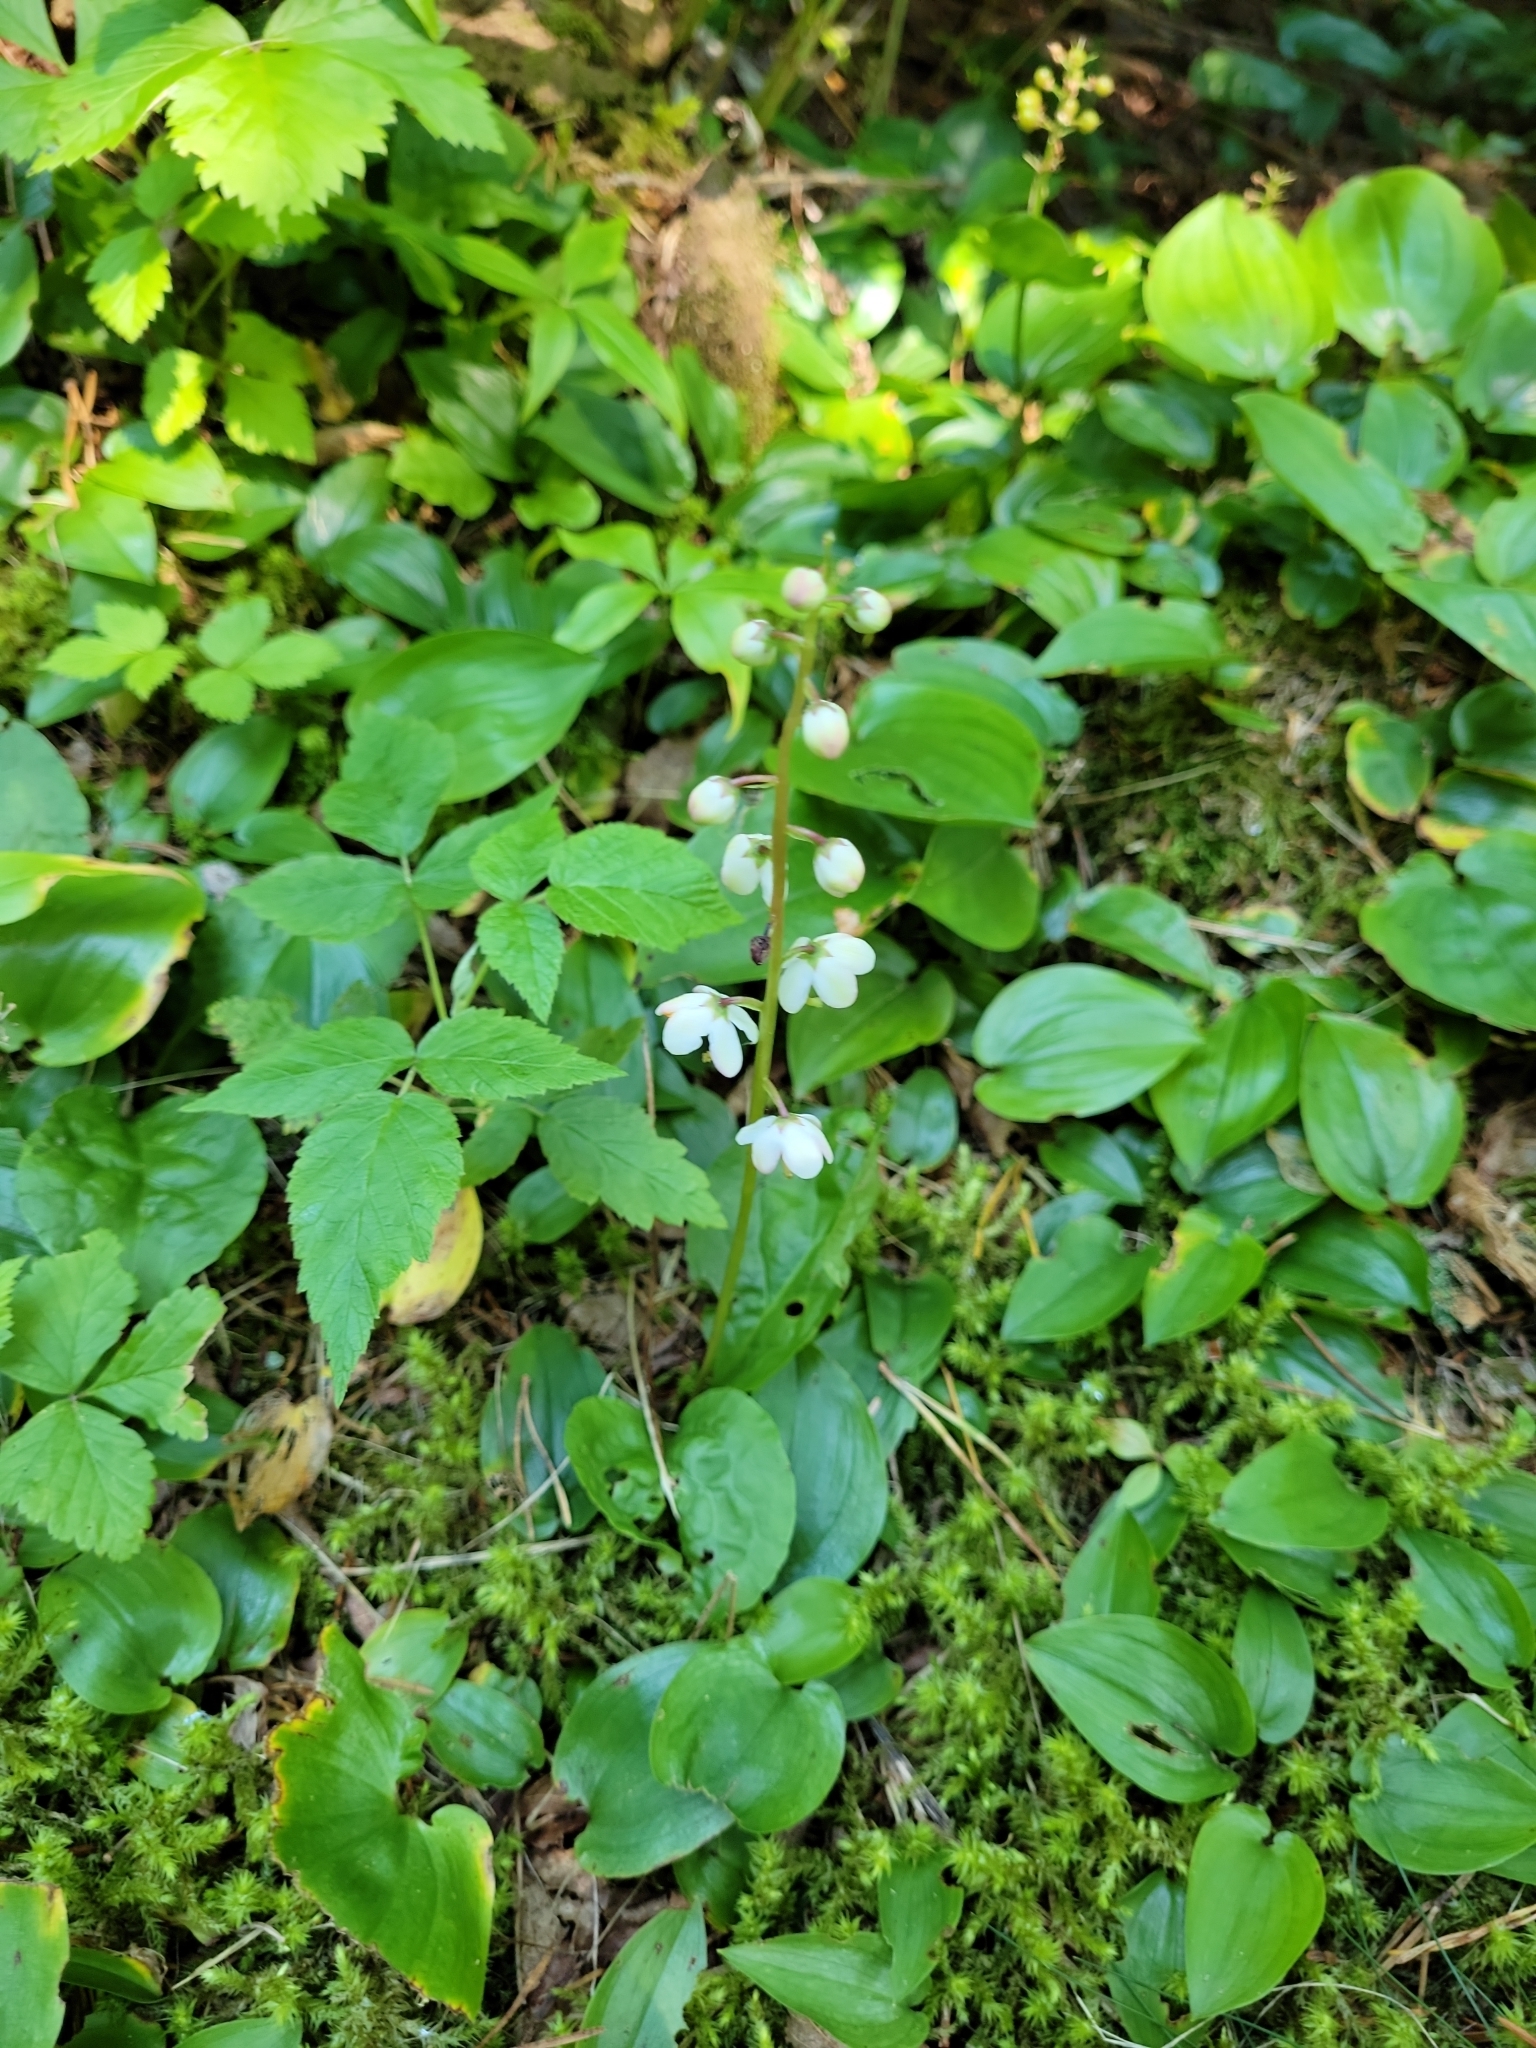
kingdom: Plantae
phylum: Tracheophyta
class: Magnoliopsida
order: Ericales
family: Ericaceae
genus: Pyrola
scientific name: Pyrola elliptica
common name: Shinleaf
